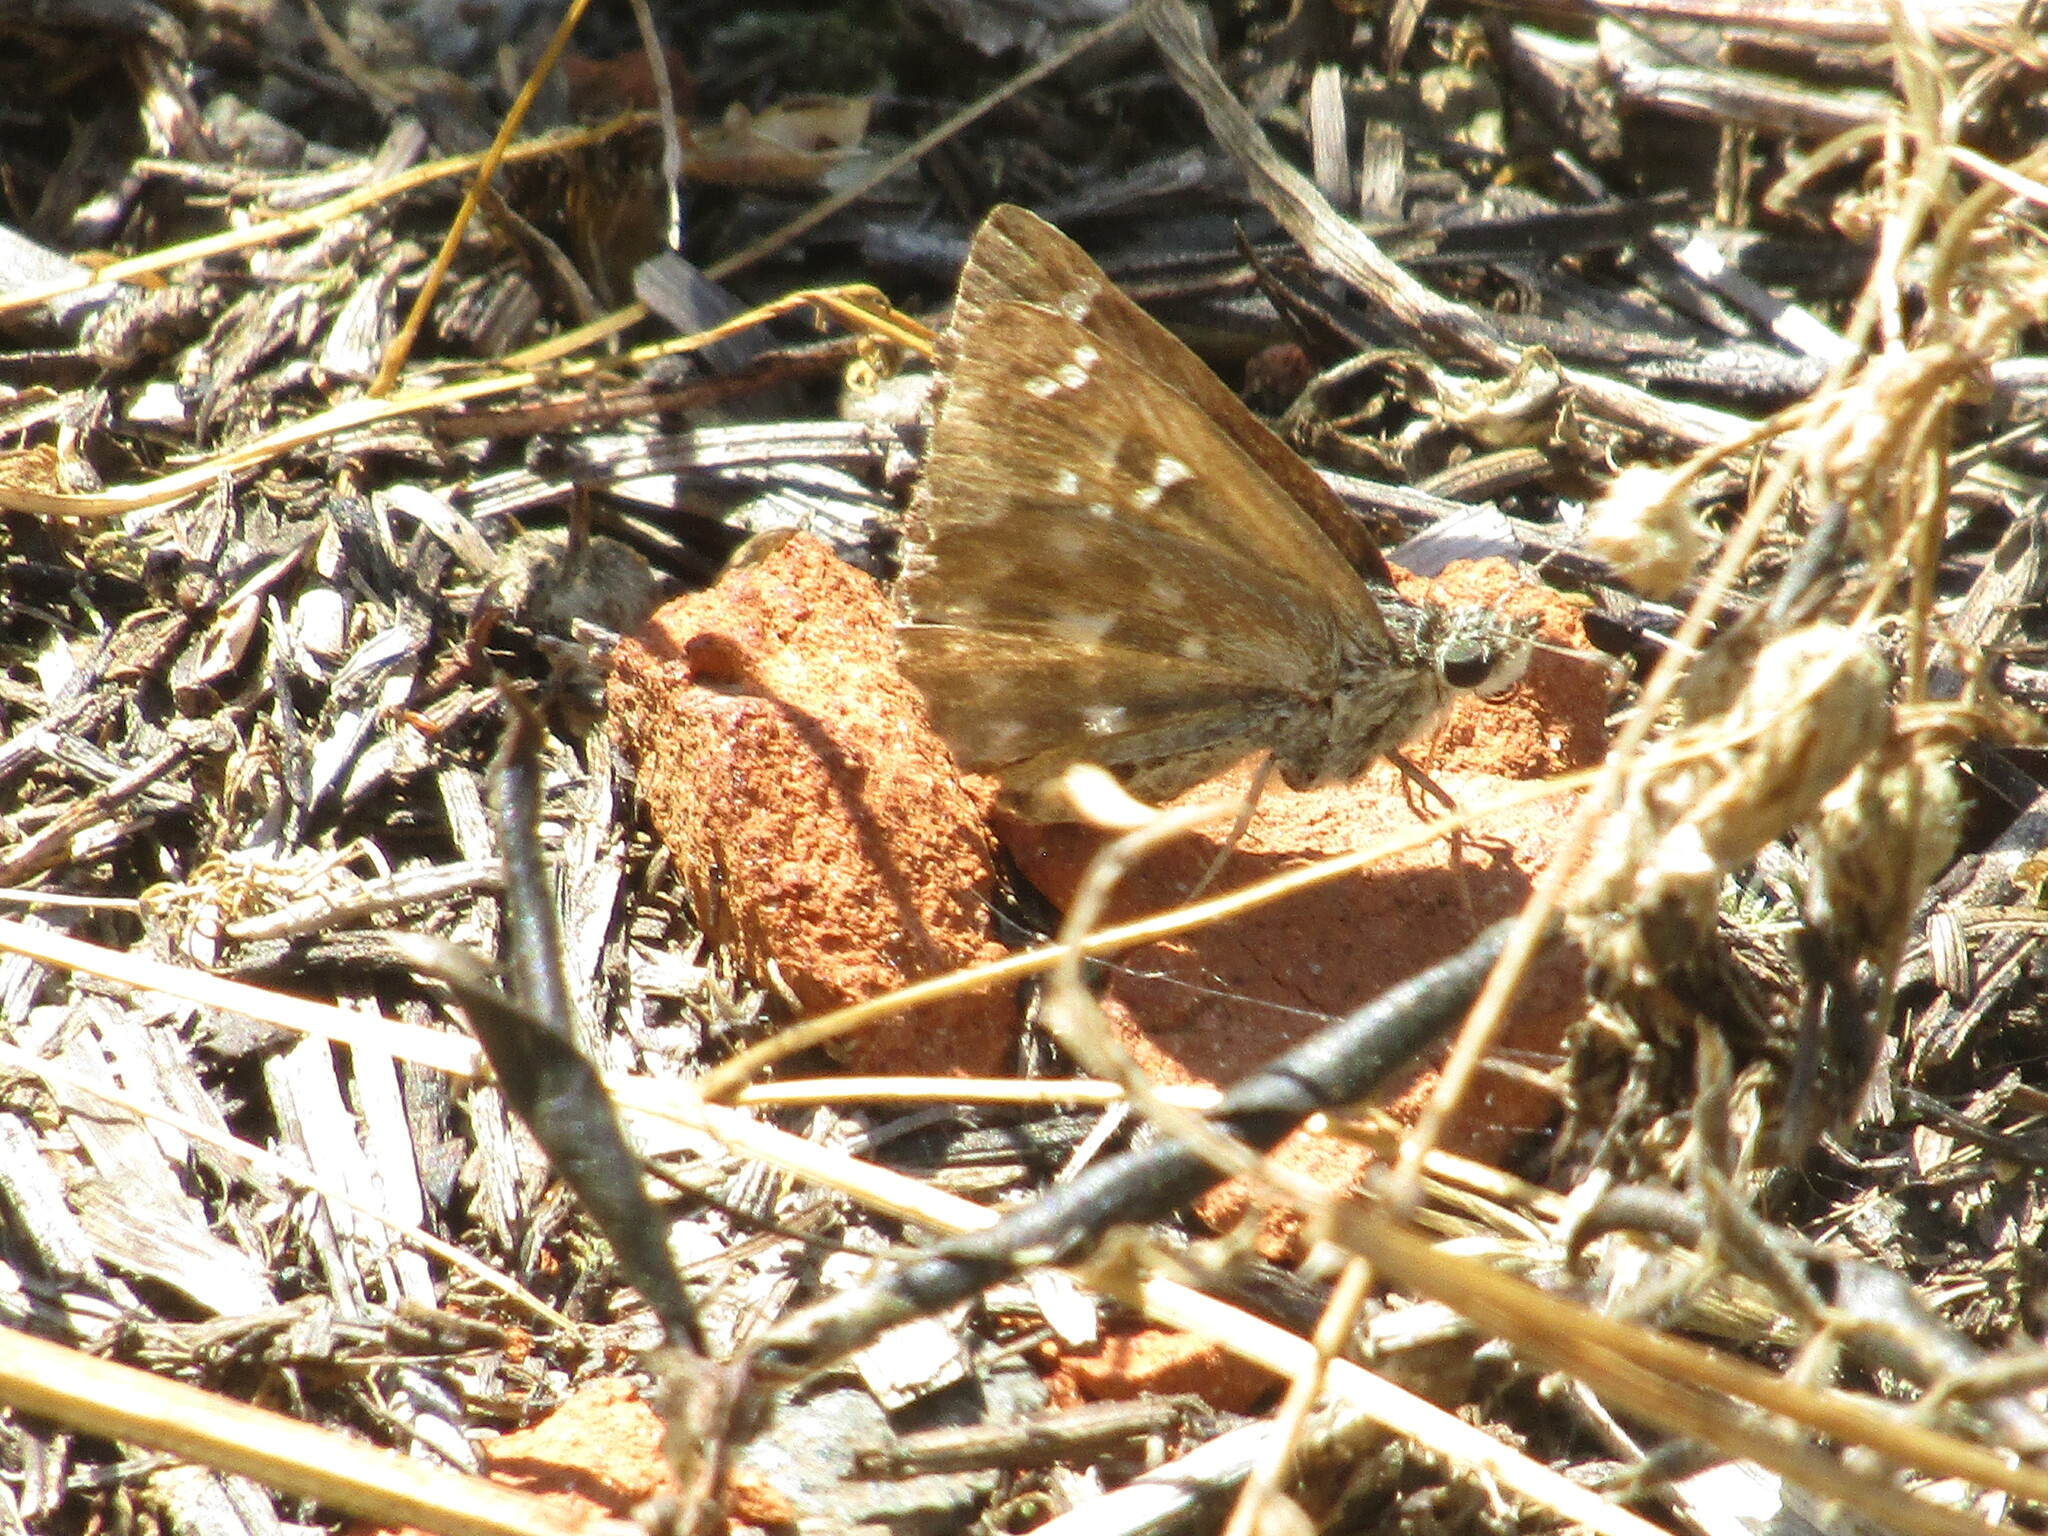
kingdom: Animalia
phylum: Arthropoda
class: Insecta
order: Lepidoptera
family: Hesperiidae
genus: Carcharodus
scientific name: Carcharodus alceae
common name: Mallow skipper
